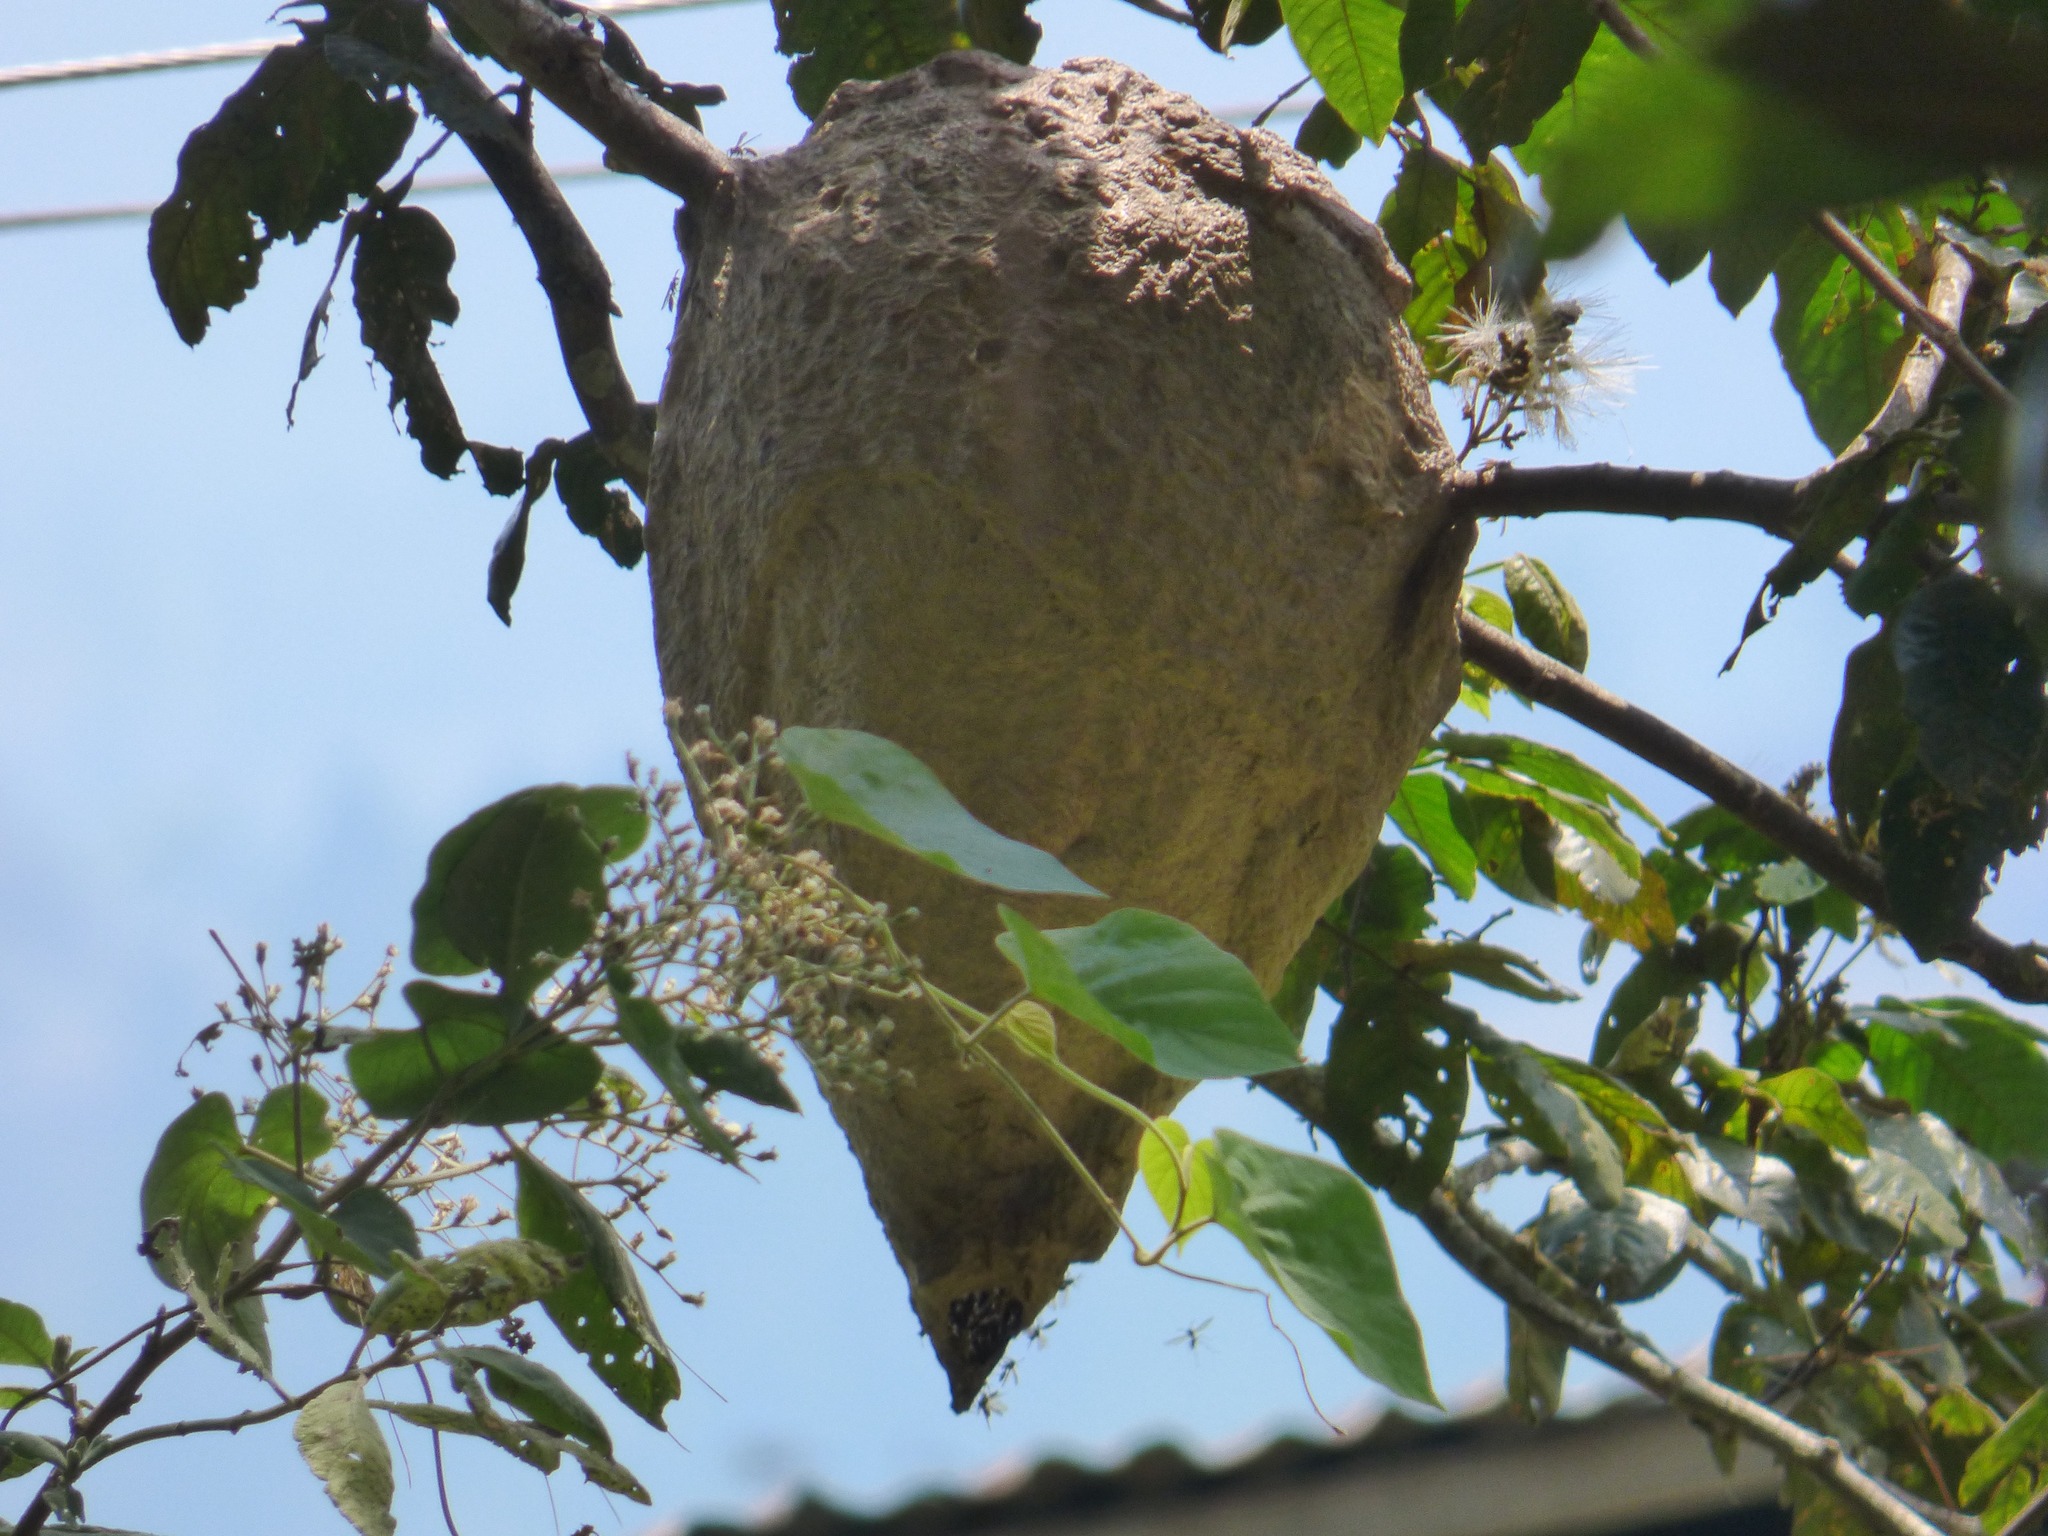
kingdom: Animalia
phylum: Arthropoda
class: Insecta
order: Hymenoptera
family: Vespidae
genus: Agelaia
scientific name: Agelaia areata
